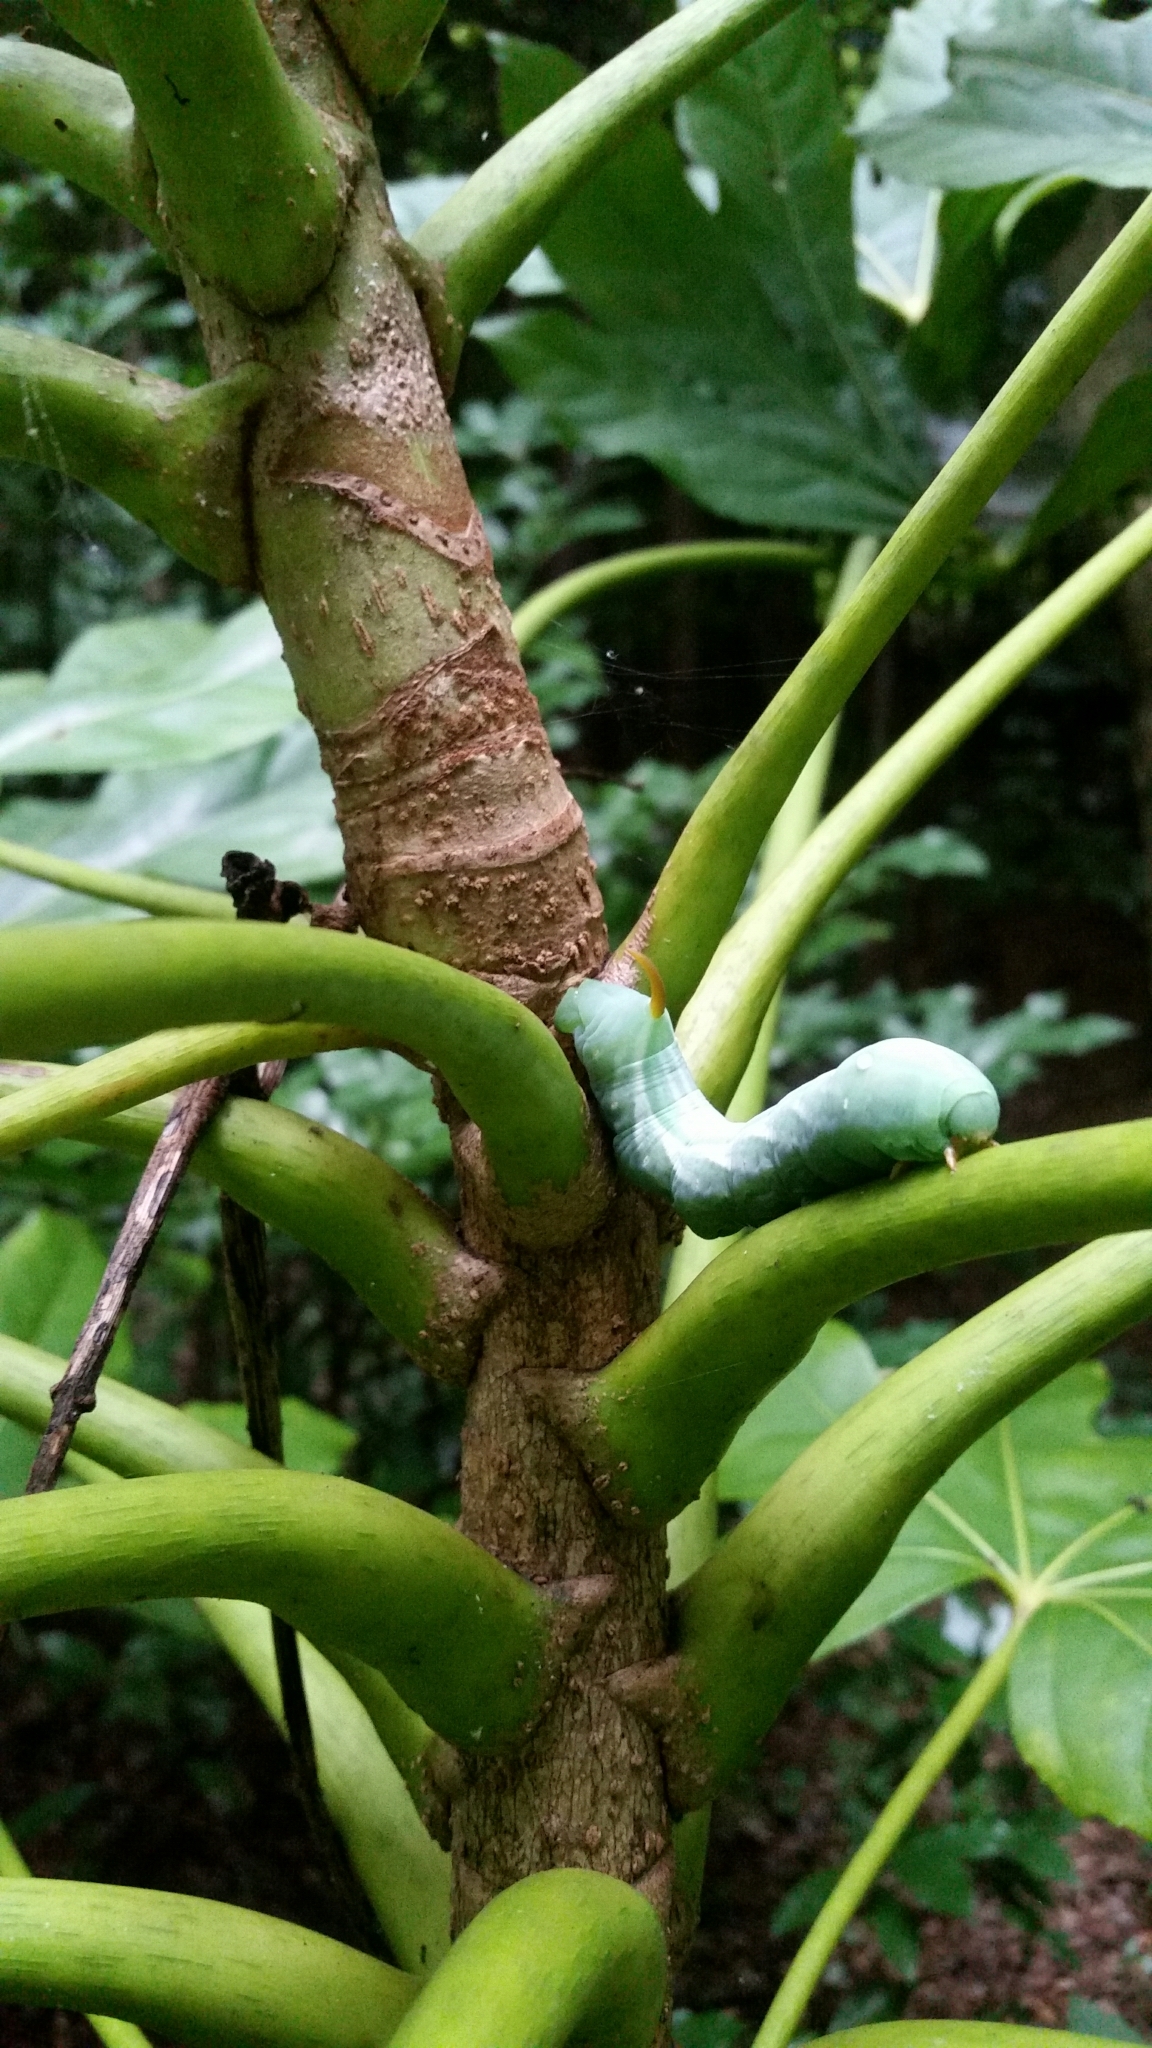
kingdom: Animalia
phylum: Arthropoda
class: Insecta
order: Lepidoptera
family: Sphingidae
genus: Theretra
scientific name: Theretra nessus
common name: Yam hawk moth
